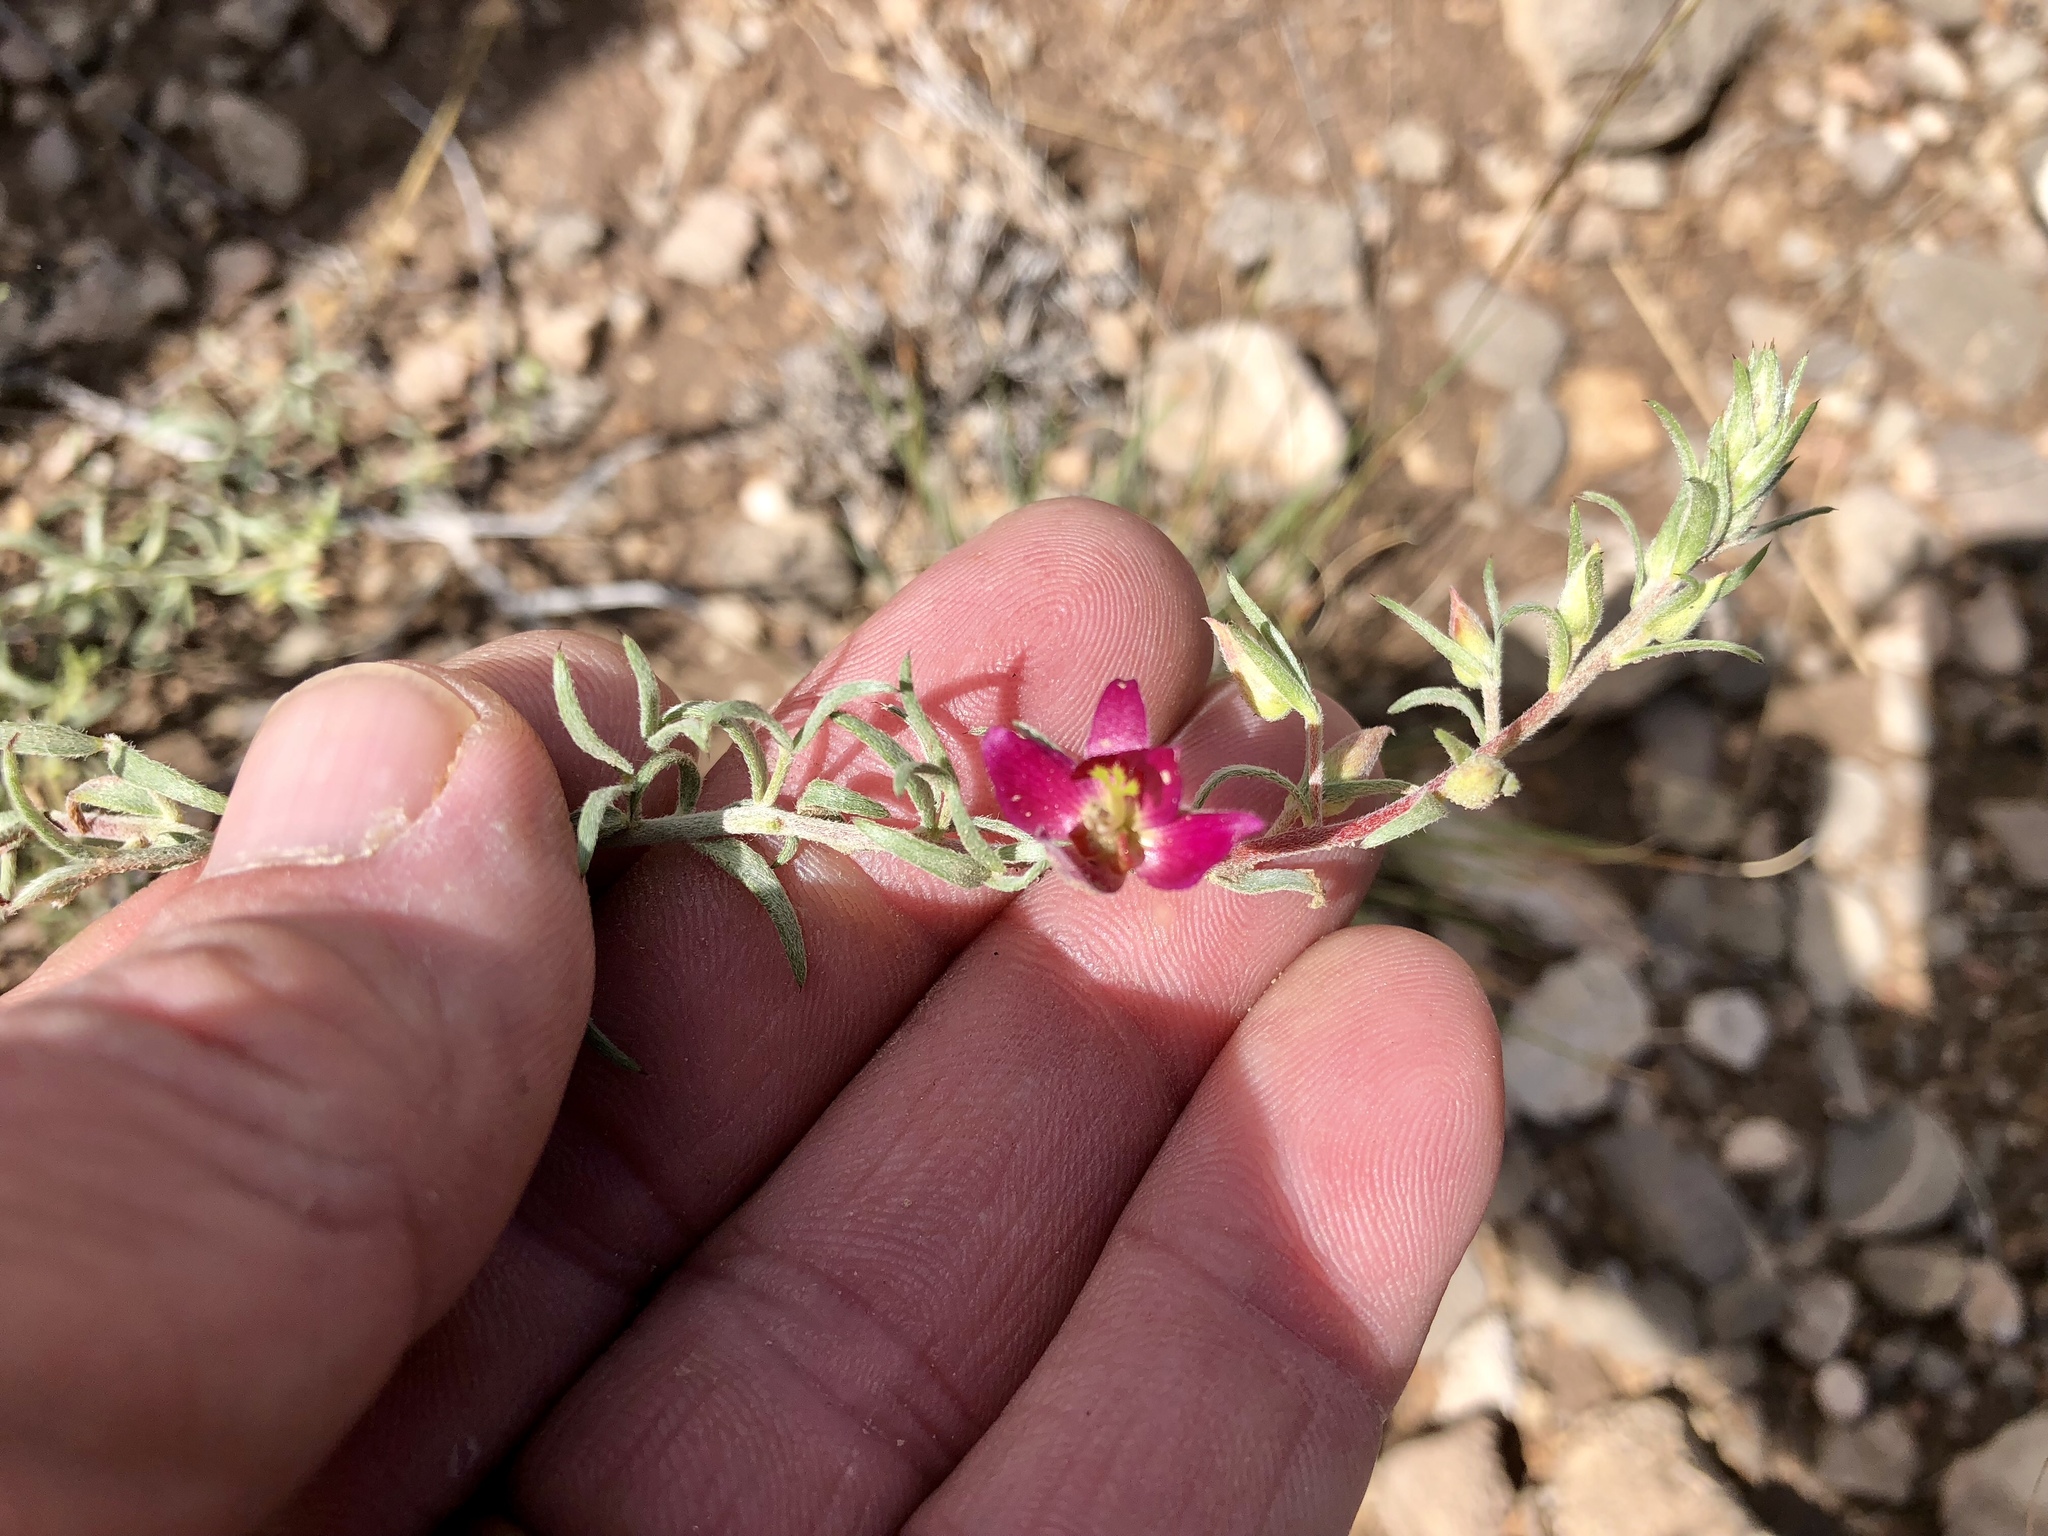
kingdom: Plantae
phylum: Tracheophyta
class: Magnoliopsida
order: Zygophyllales
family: Krameriaceae
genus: Krameria
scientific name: Krameria lanceolata
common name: Ratany
